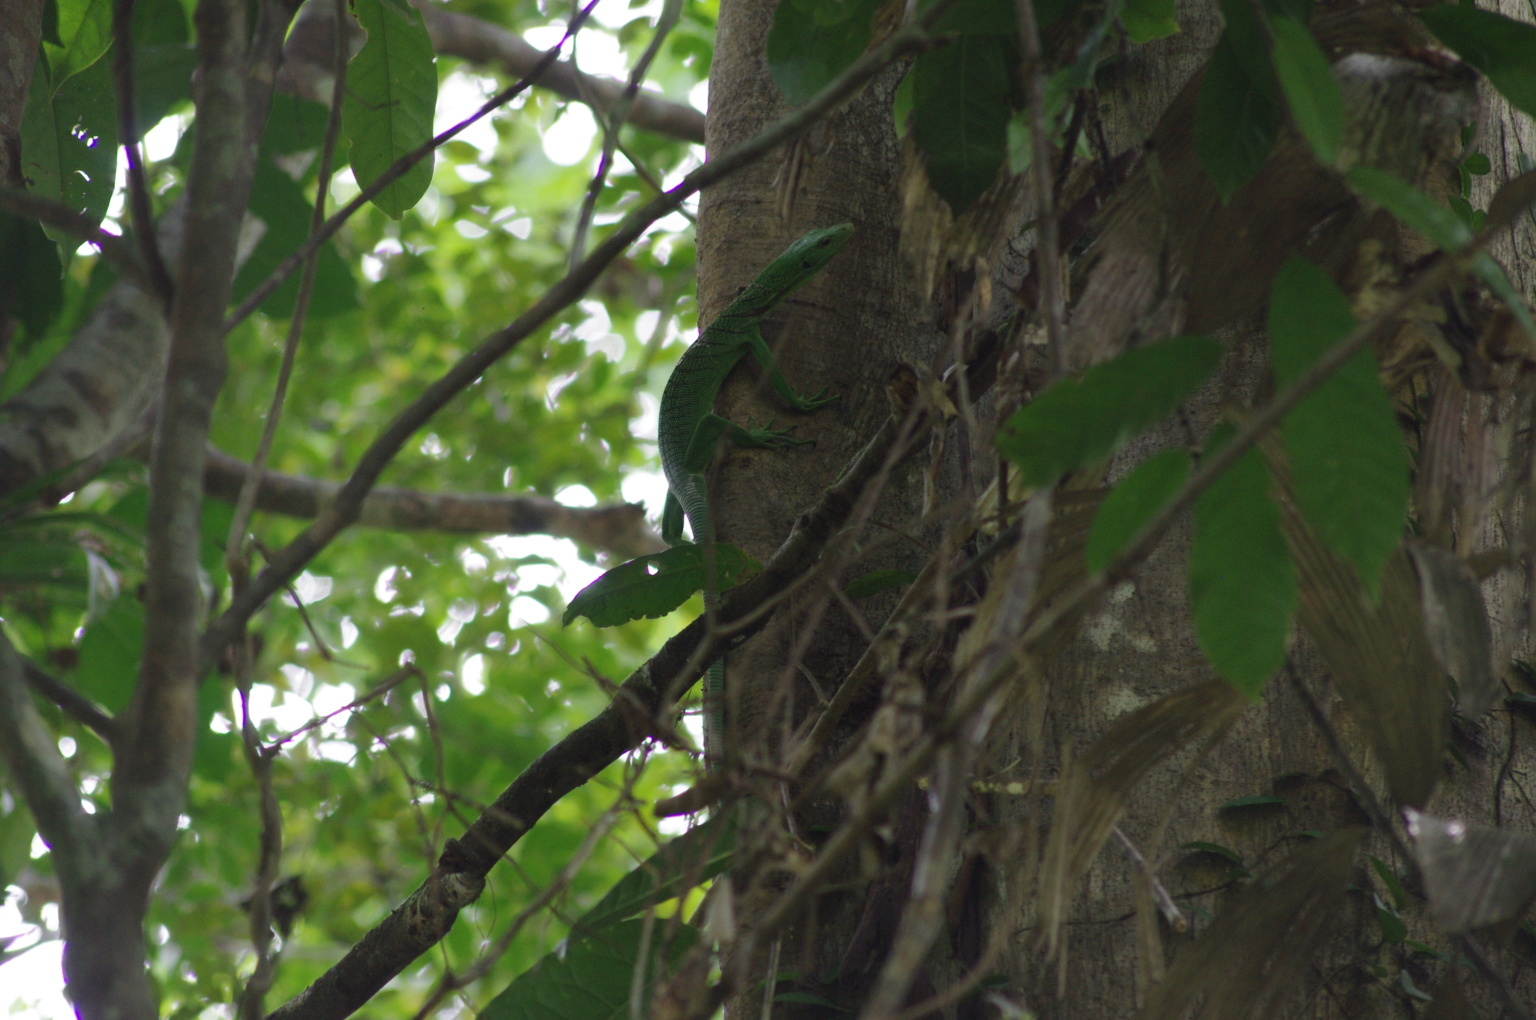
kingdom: Animalia
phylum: Chordata
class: Squamata
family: Varanidae
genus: Varanus
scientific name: Varanus prasinus
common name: Emerald monitor
